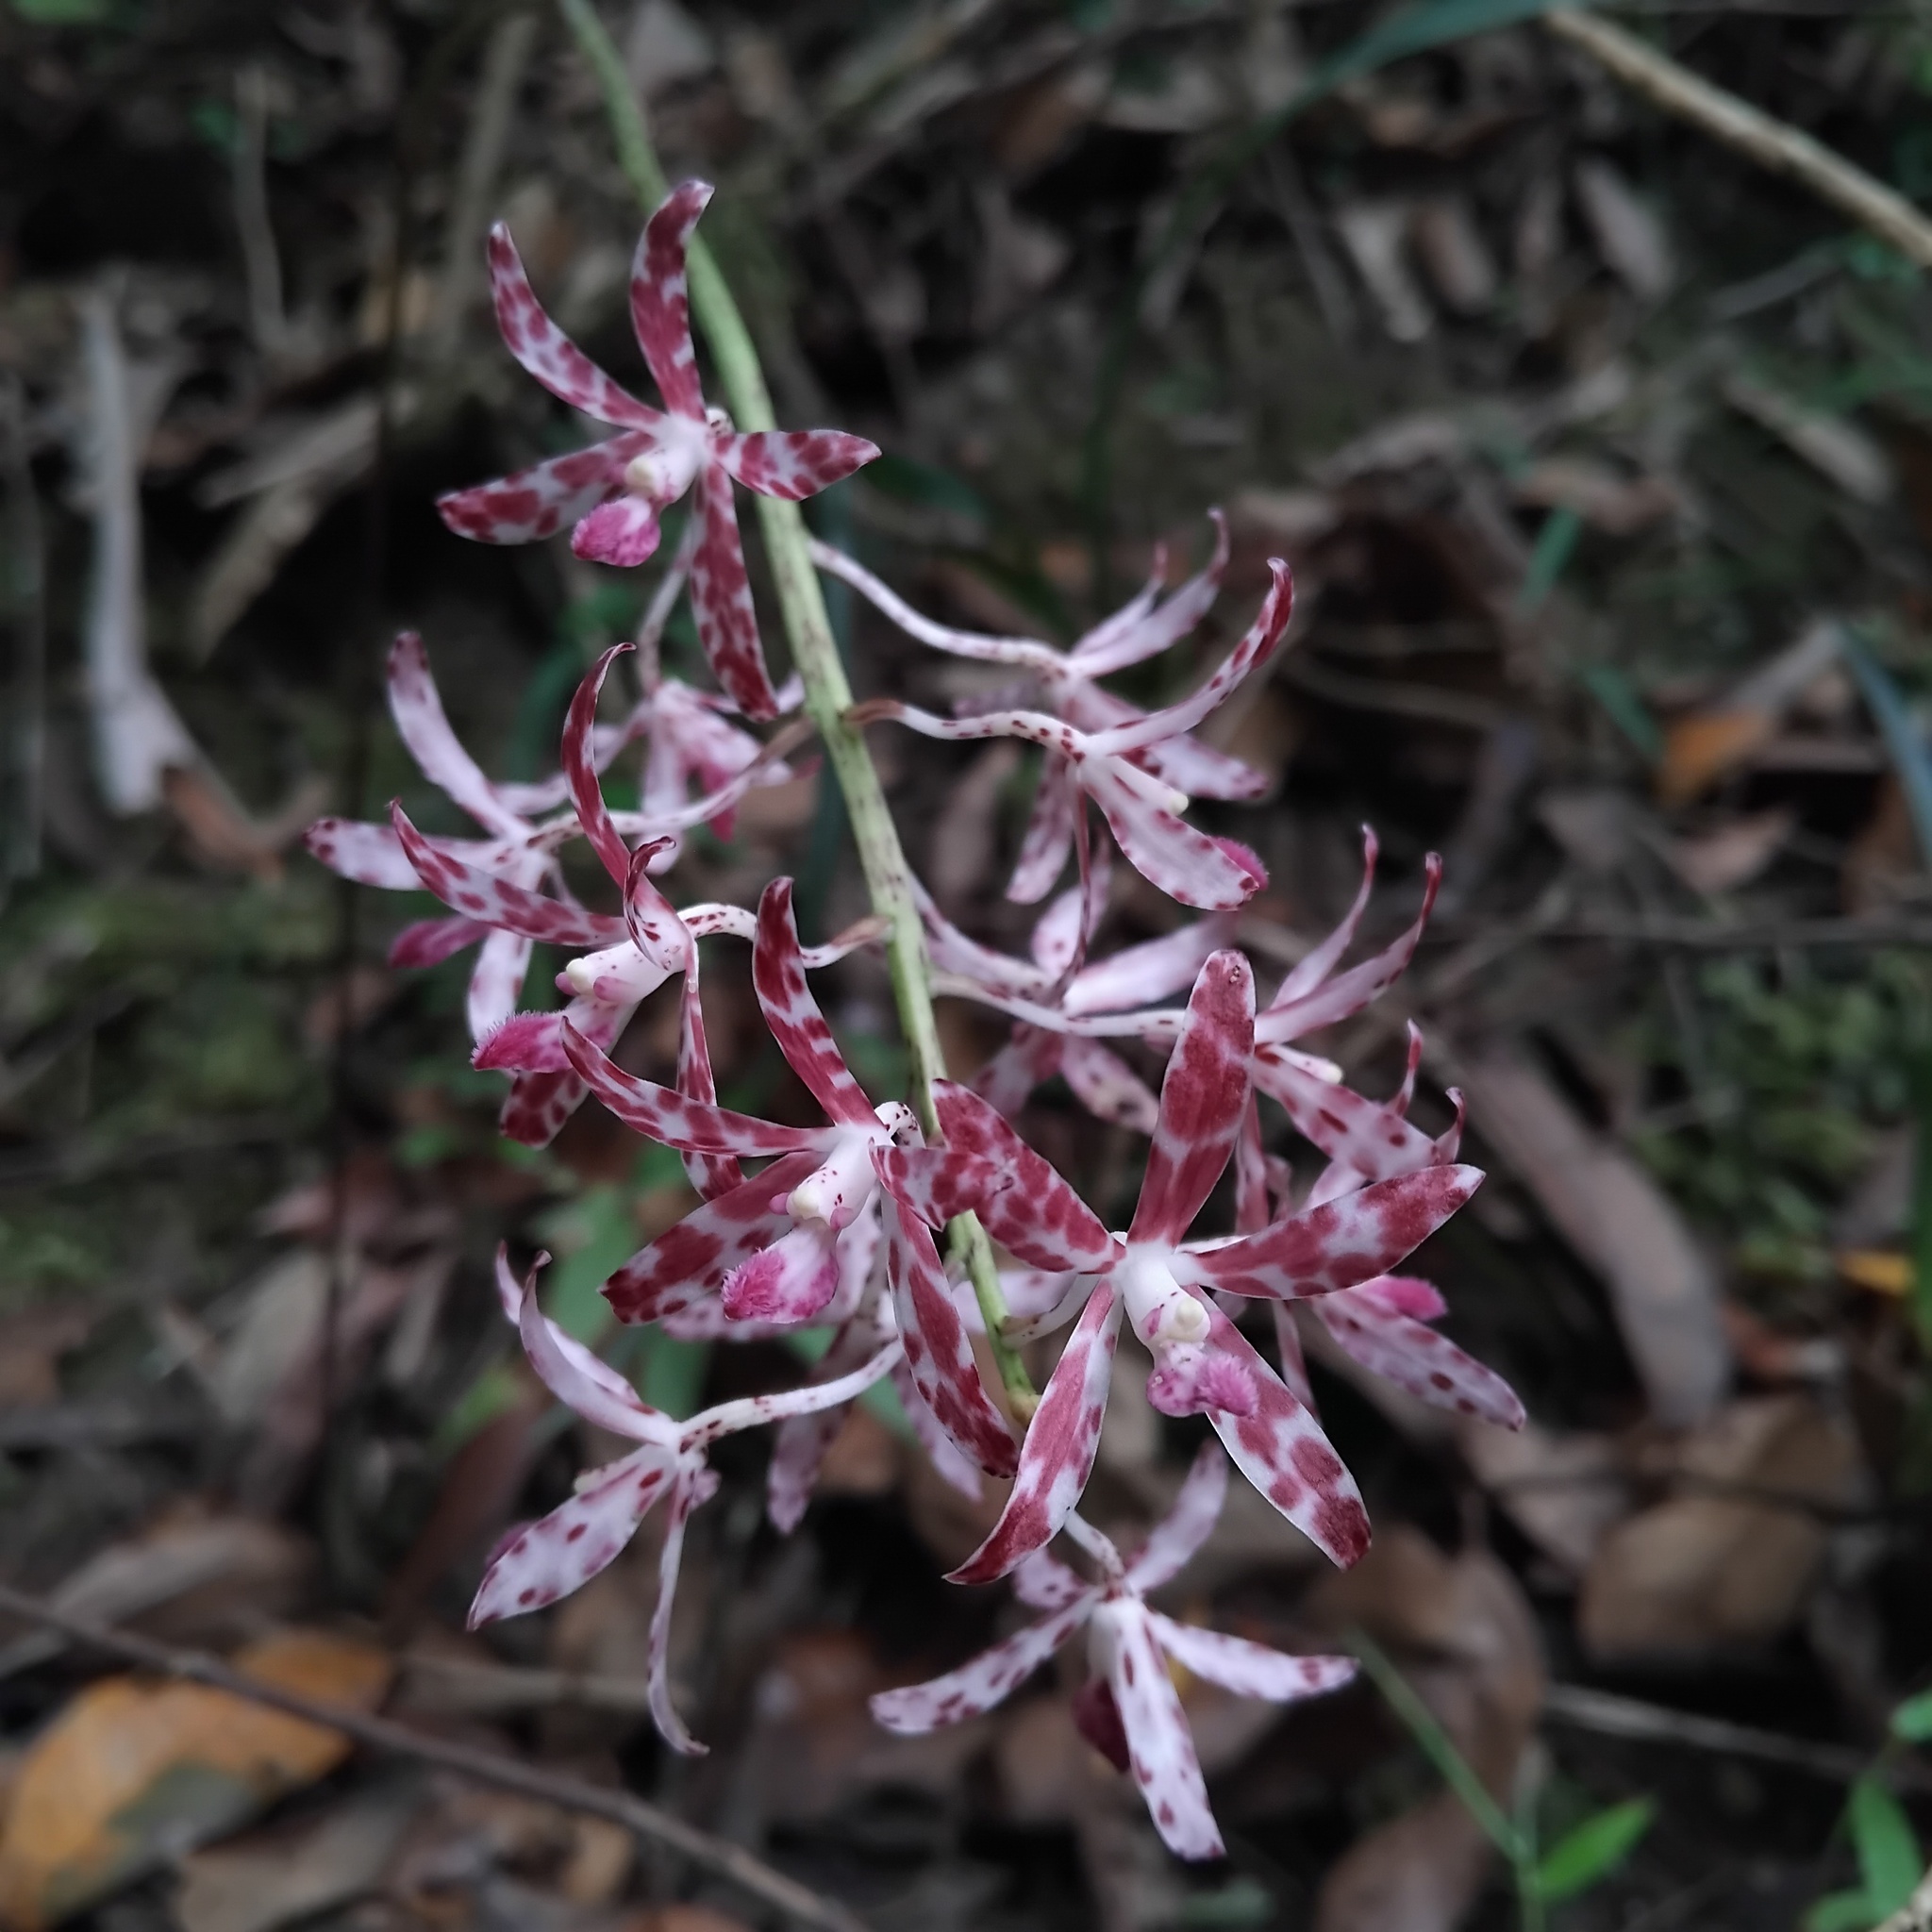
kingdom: Plantae
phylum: Tracheophyta
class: Liliopsida
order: Asparagales
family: Orchidaceae
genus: Dipodium
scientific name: Dipodium variegatum
